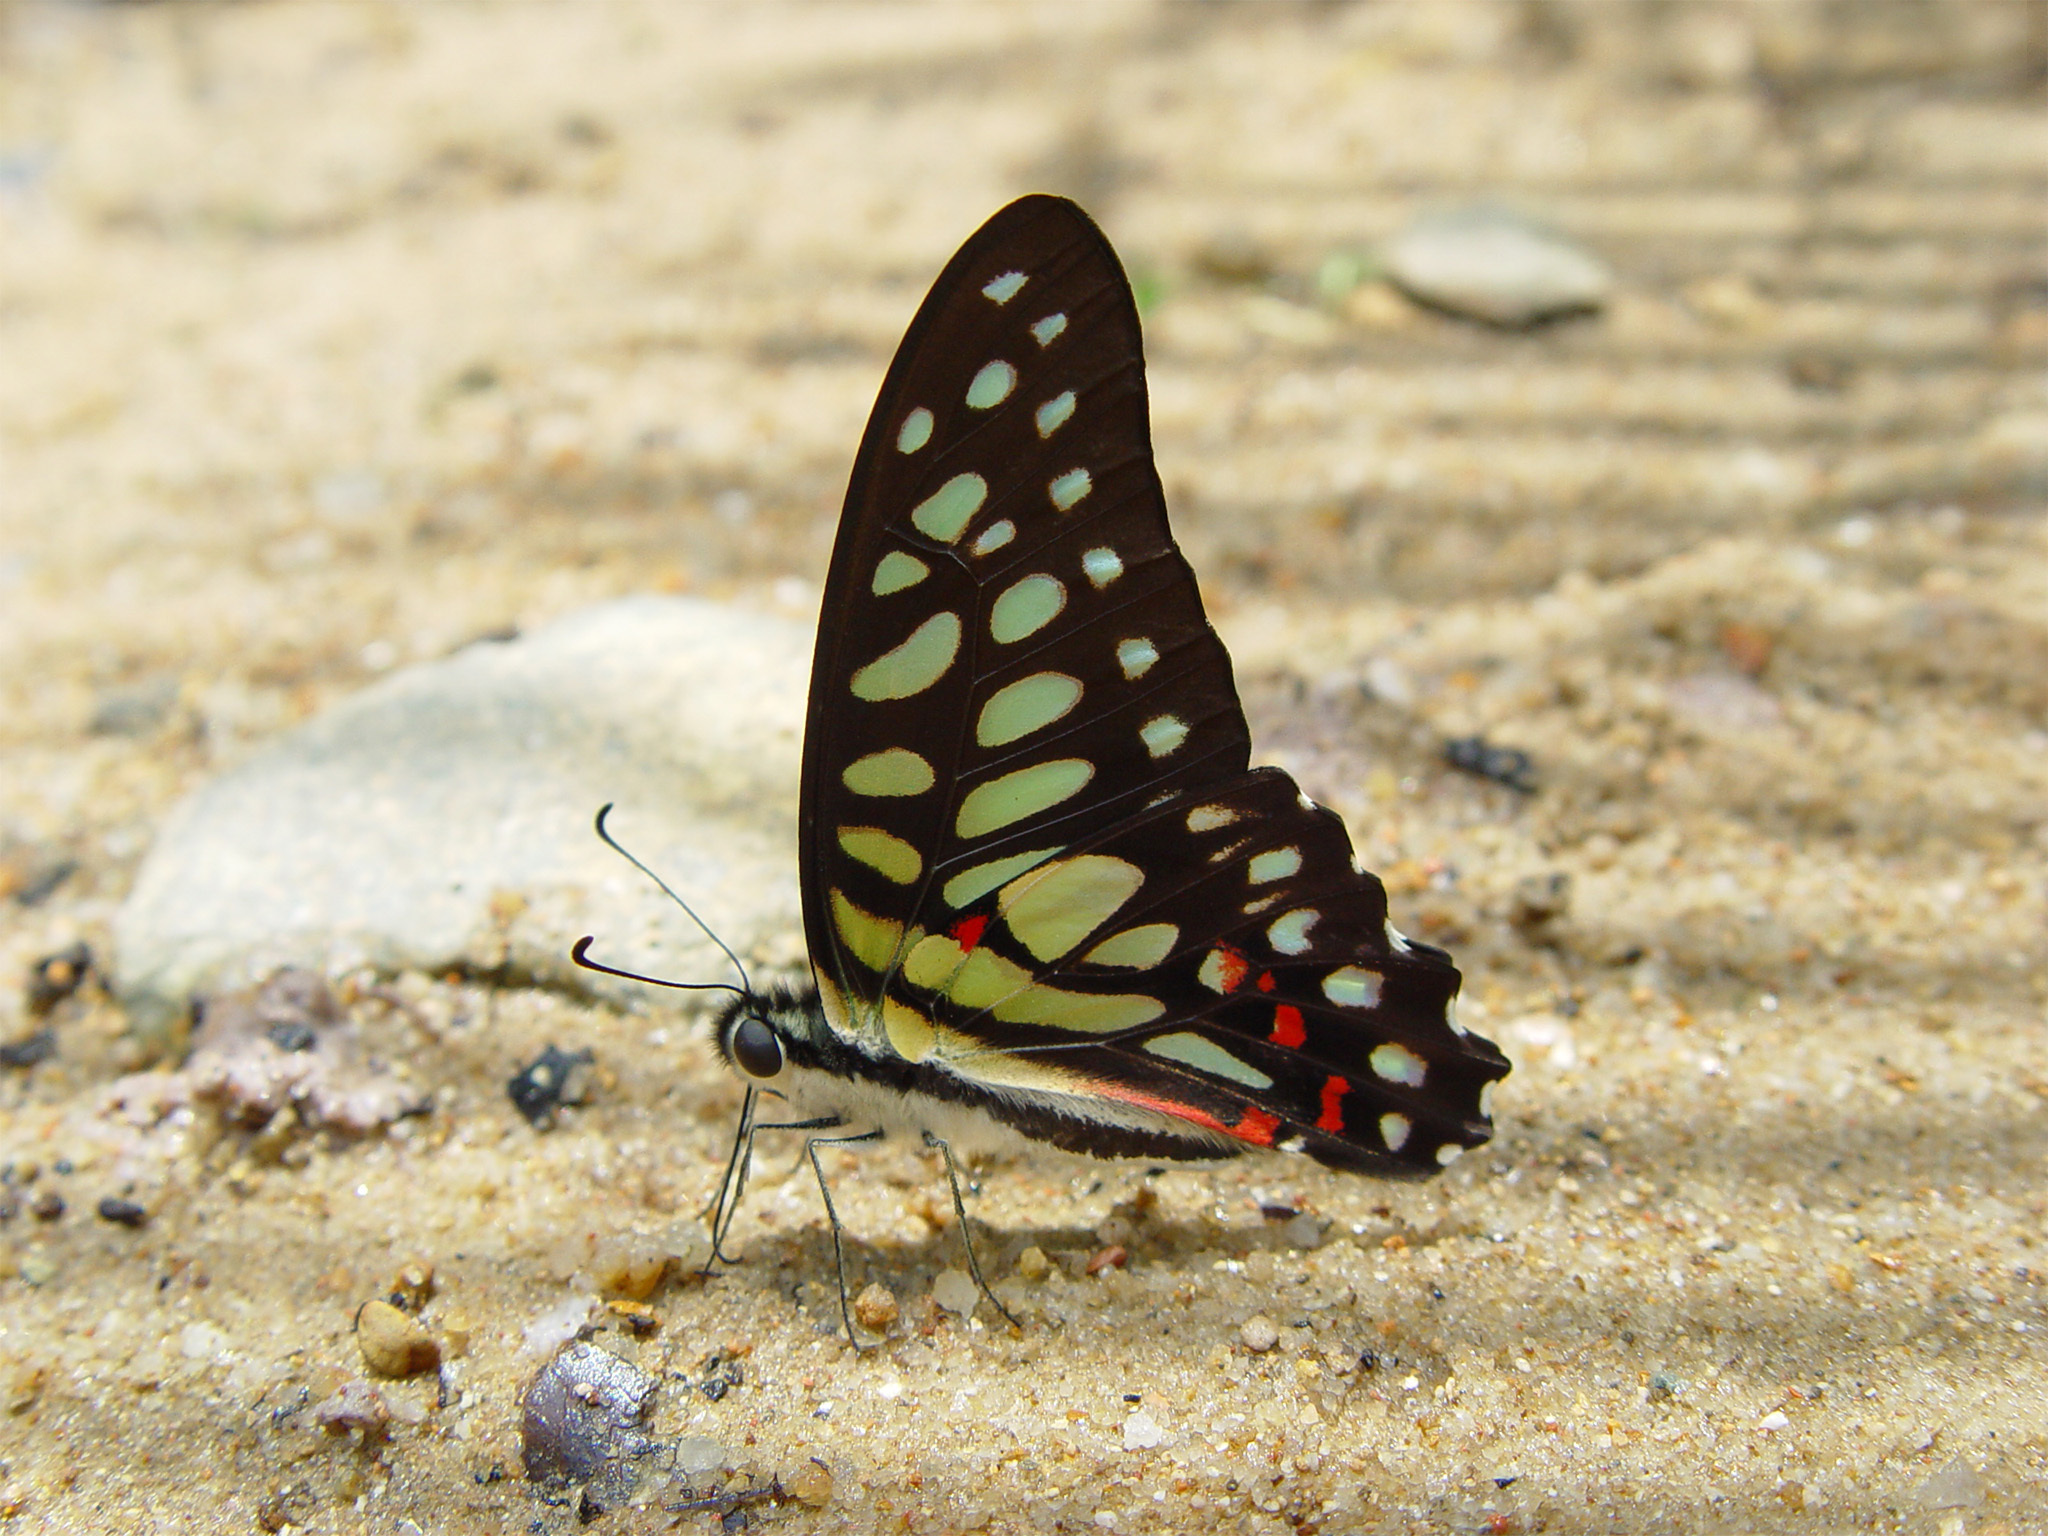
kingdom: Animalia
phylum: Arthropoda
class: Insecta
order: Lepidoptera
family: Papilionidae
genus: Graphium
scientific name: Graphium arycles
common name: Spotted jay
